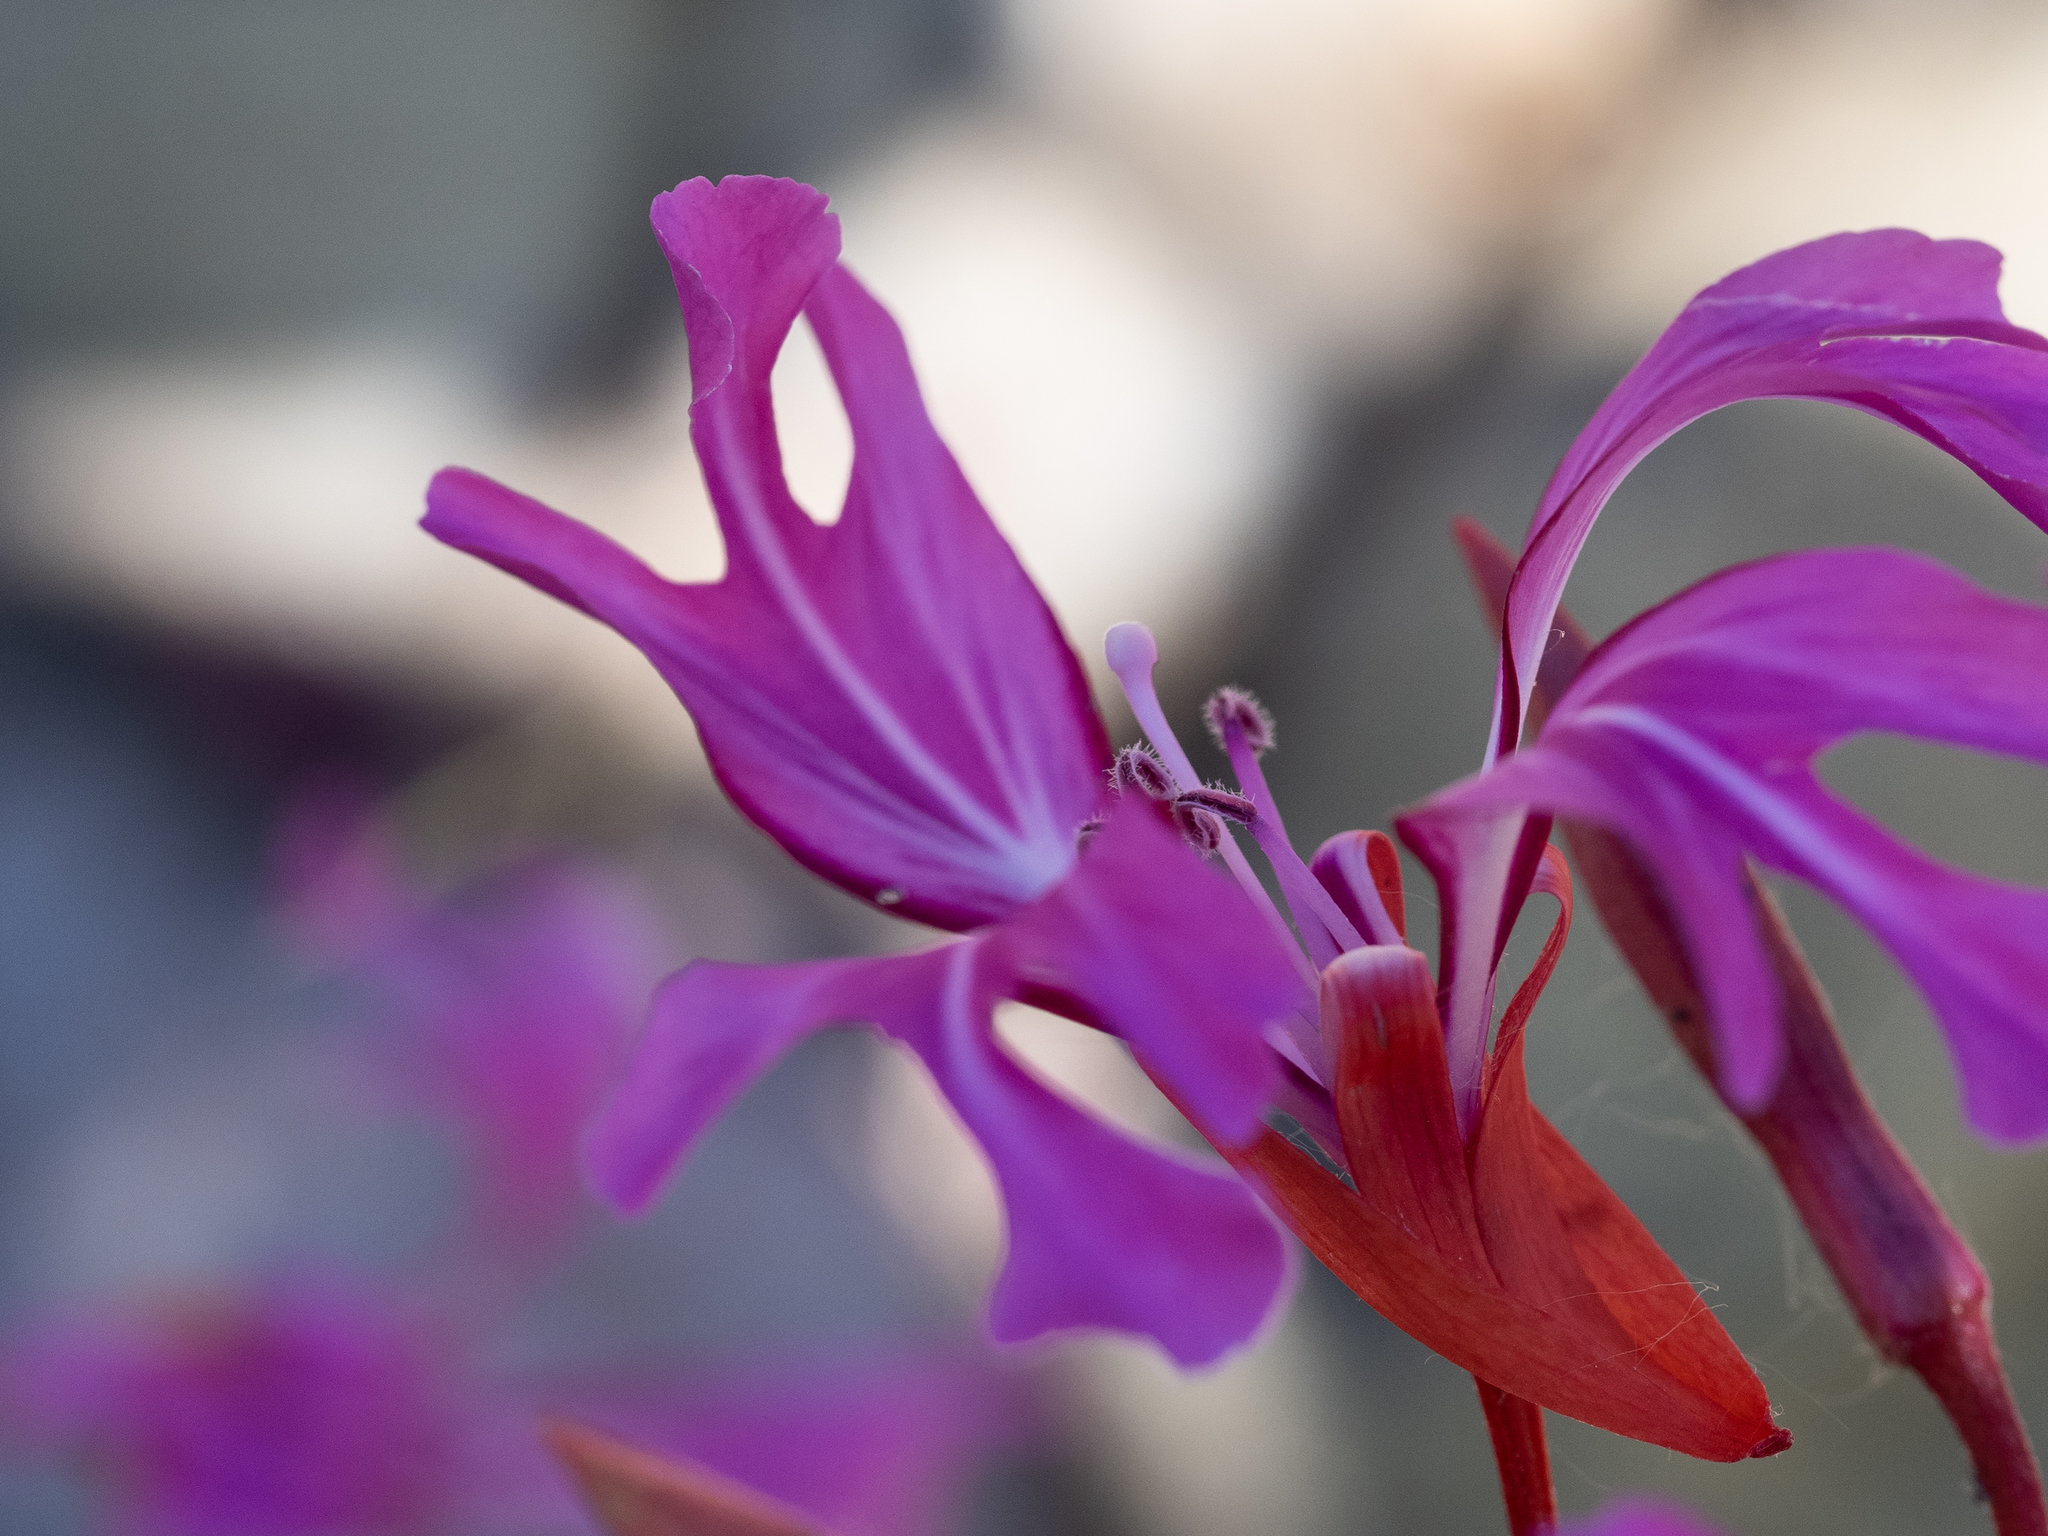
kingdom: Plantae
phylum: Tracheophyta
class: Magnoliopsida
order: Myrtales
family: Onagraceae
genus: Clarkia
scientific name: Clarkia concinna
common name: Red-ribbons
